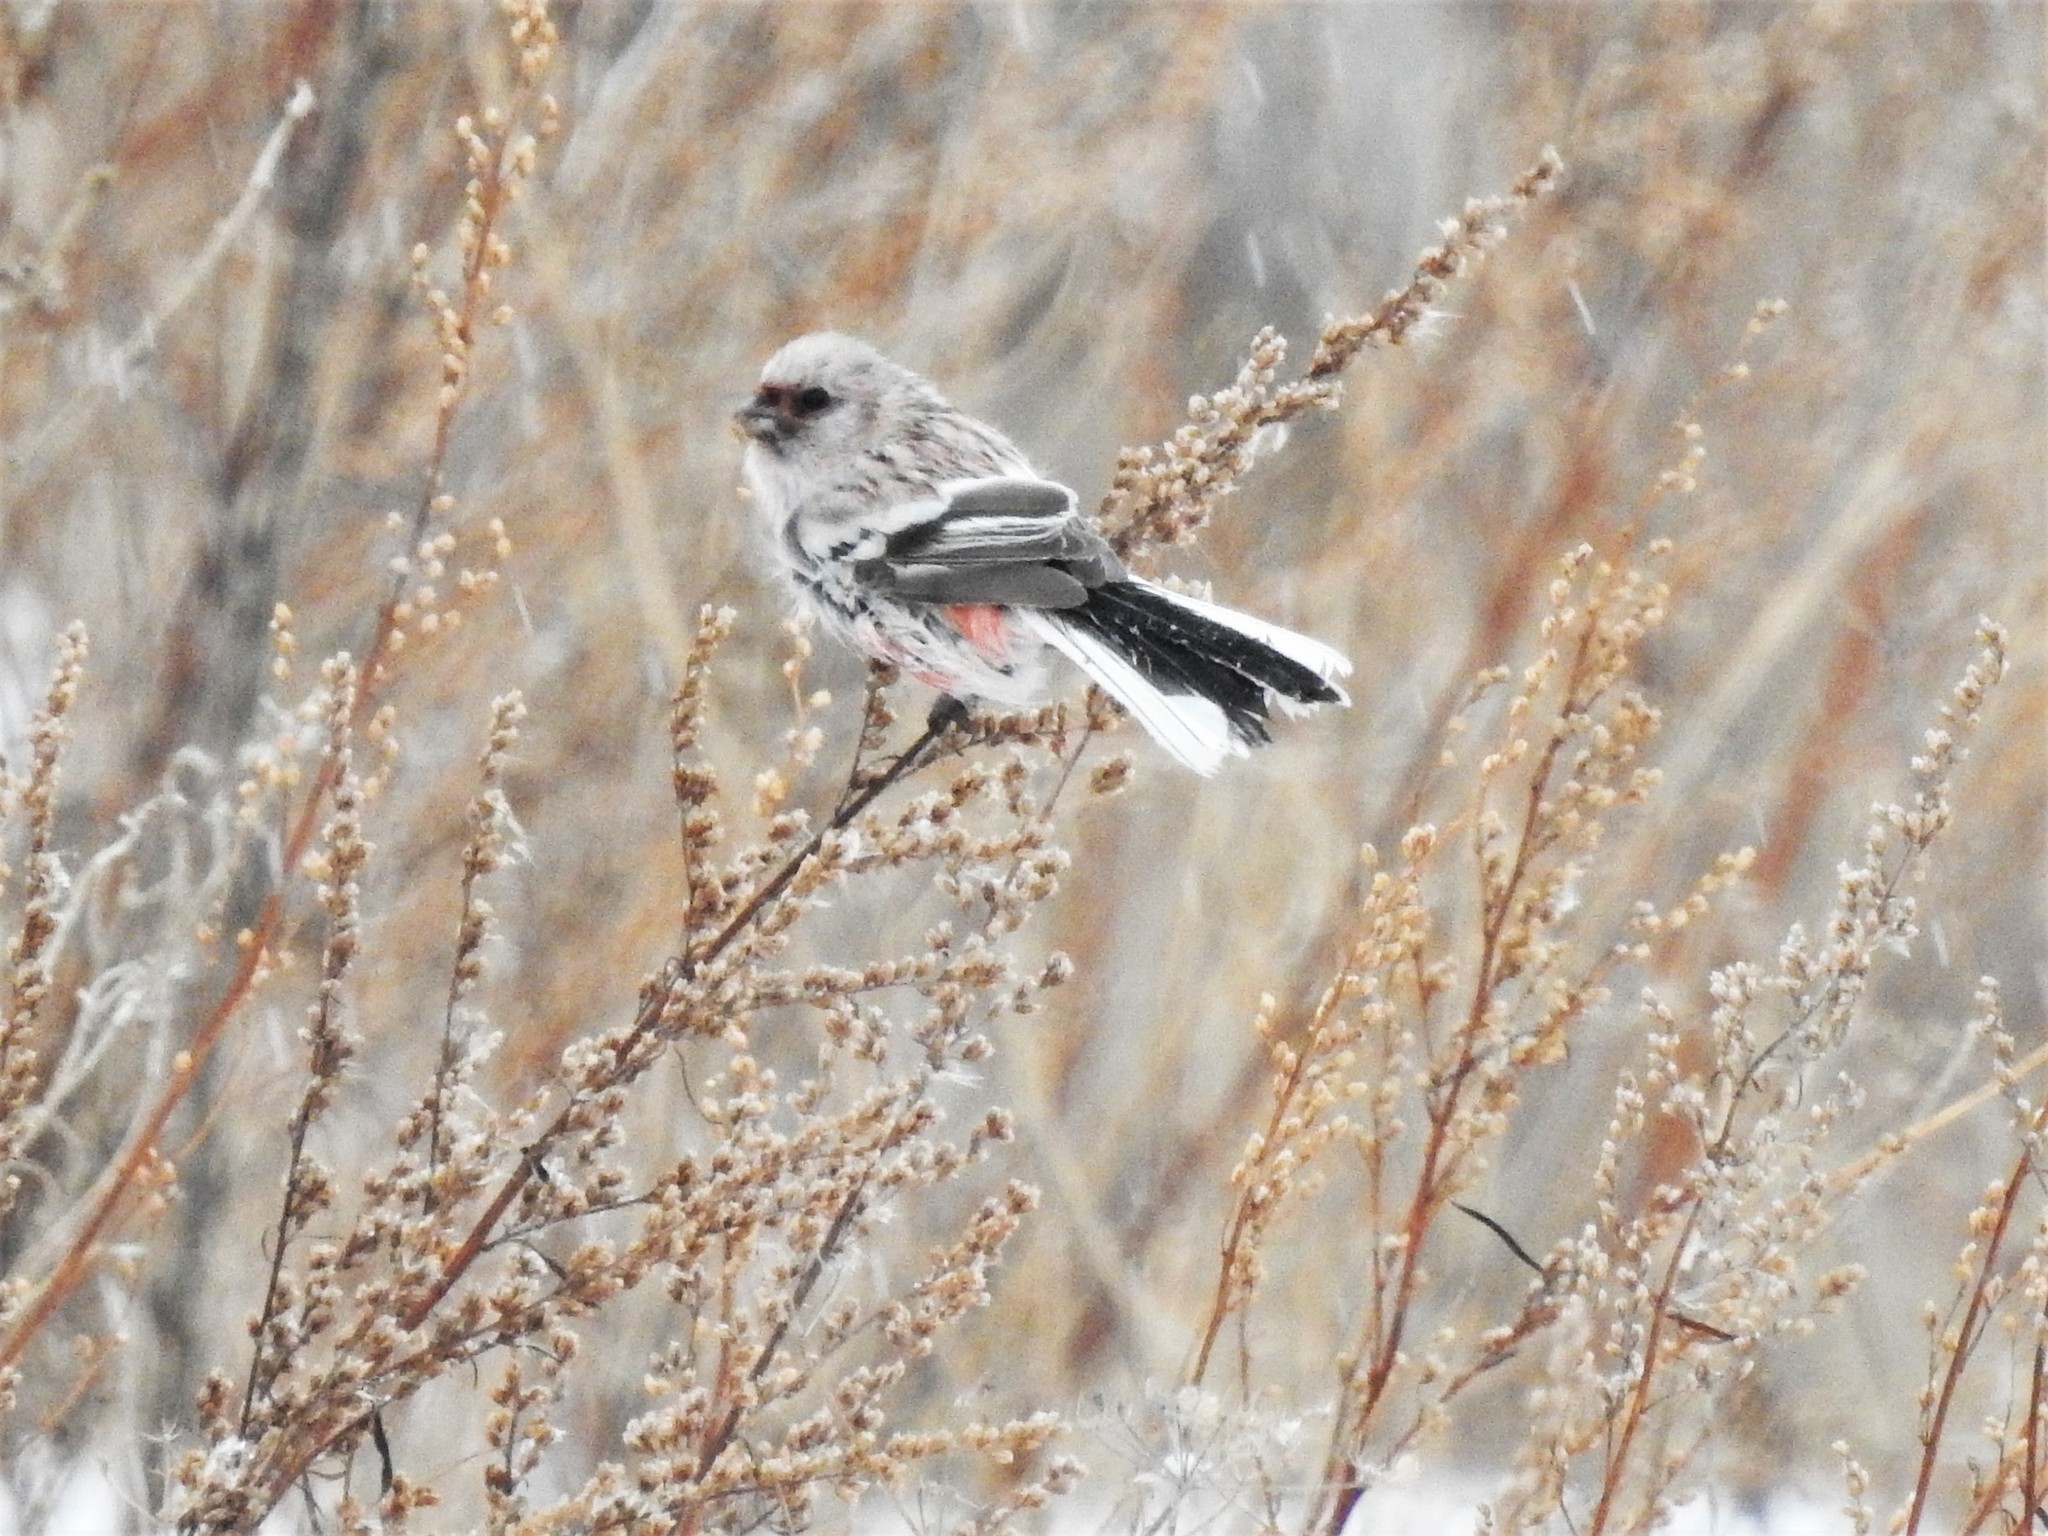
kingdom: Animalia
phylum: Chordata
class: Aves
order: Passeriformes
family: Fringillidae
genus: Carpodacus
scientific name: Carpodacus sibiricus
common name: Long-tailed rosefinch
